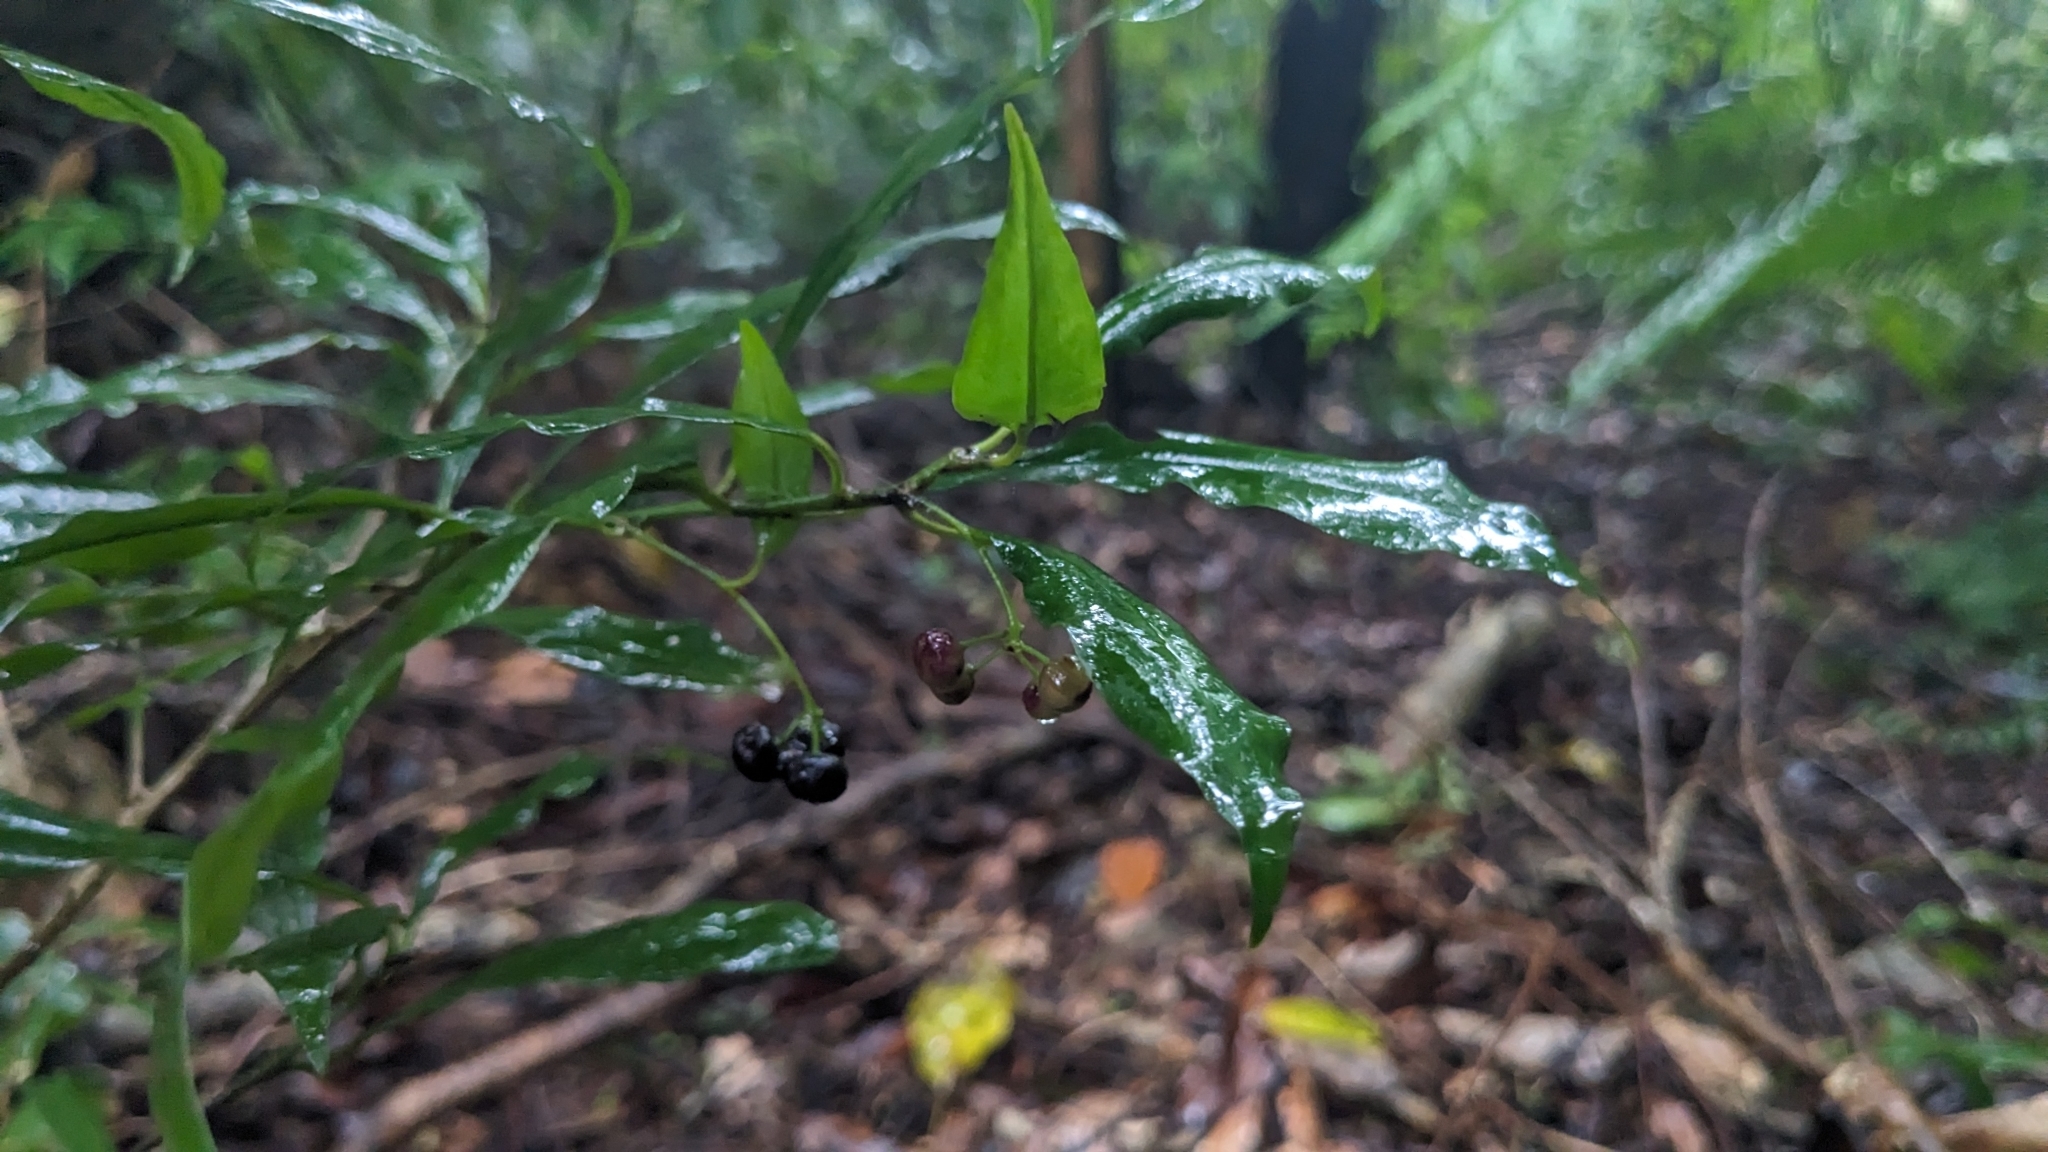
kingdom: Plantae
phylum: Tracheophyta
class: Magnoliopsida
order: Ericales
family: Primulaceae
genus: Ardisia
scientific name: Ardisia quinquegona
